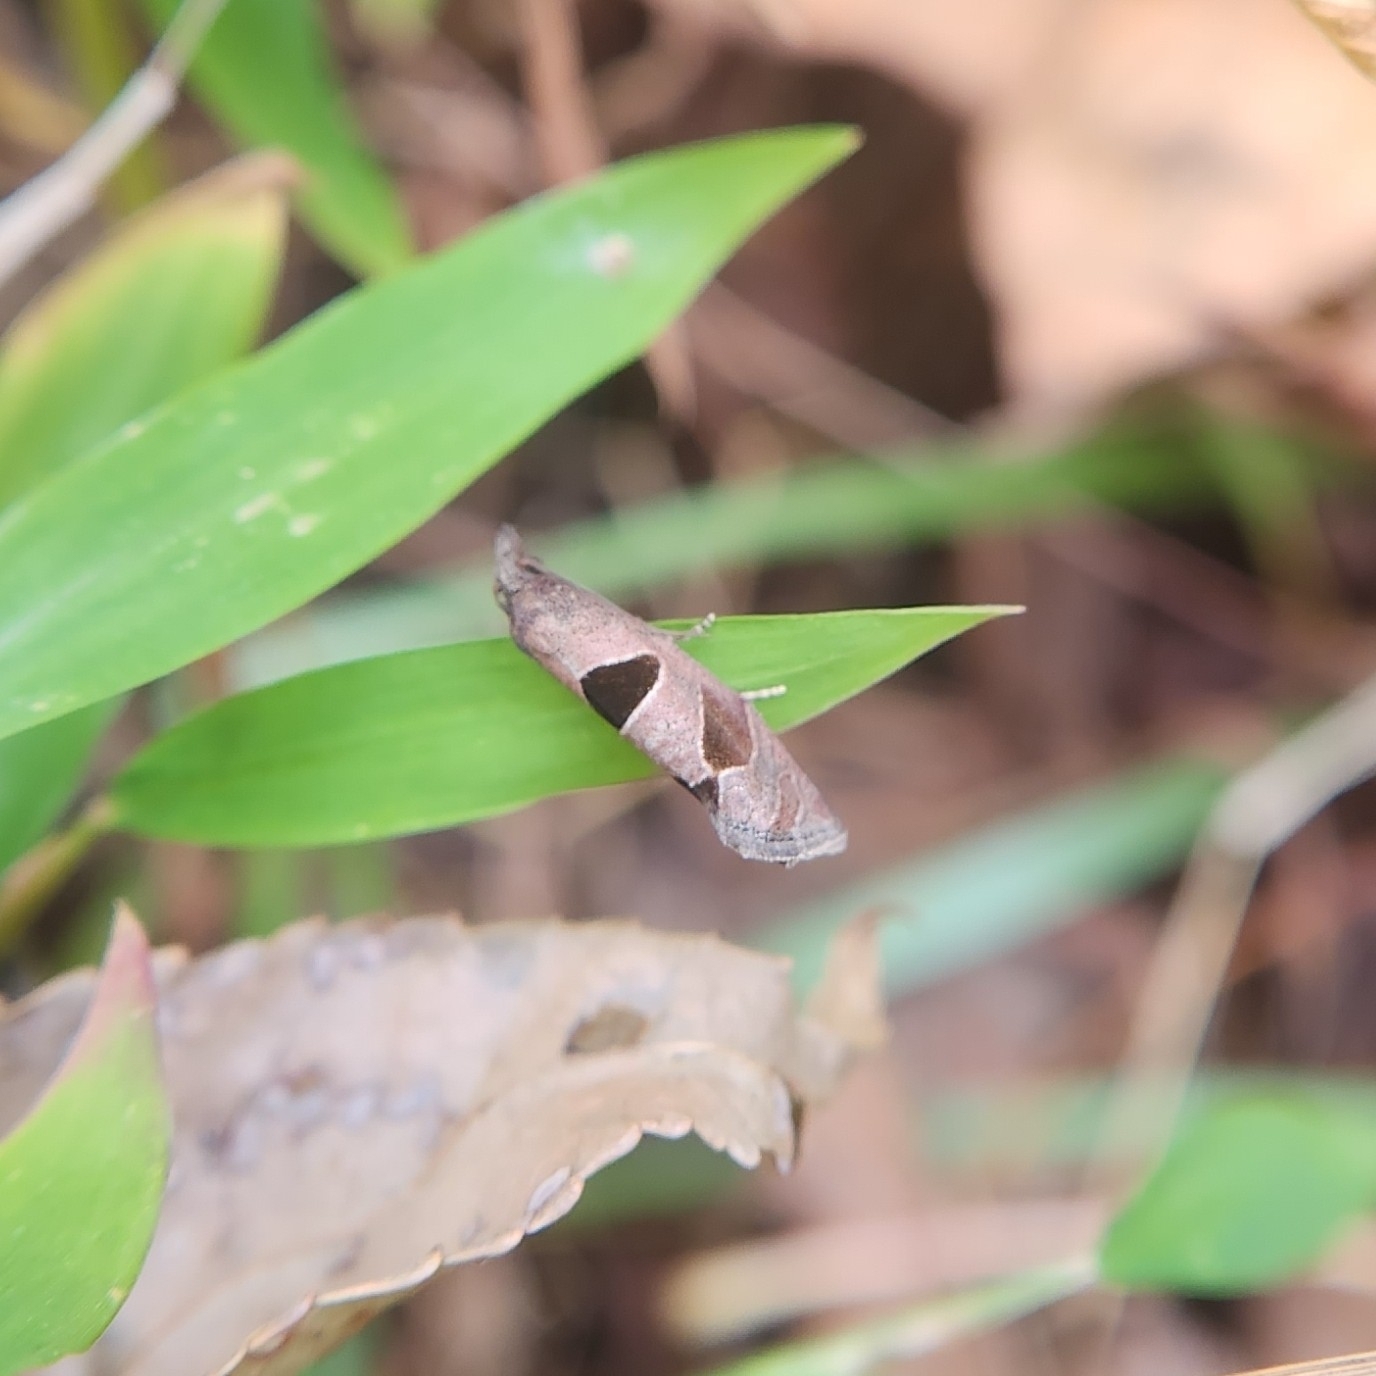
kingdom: Animalia
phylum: Arthropoda
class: Insecta
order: Lepidoptera
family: Tortricidae
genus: Pelochrista
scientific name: Pelochrista dorsisignatana
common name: Triangle-backed pelochrista moth
